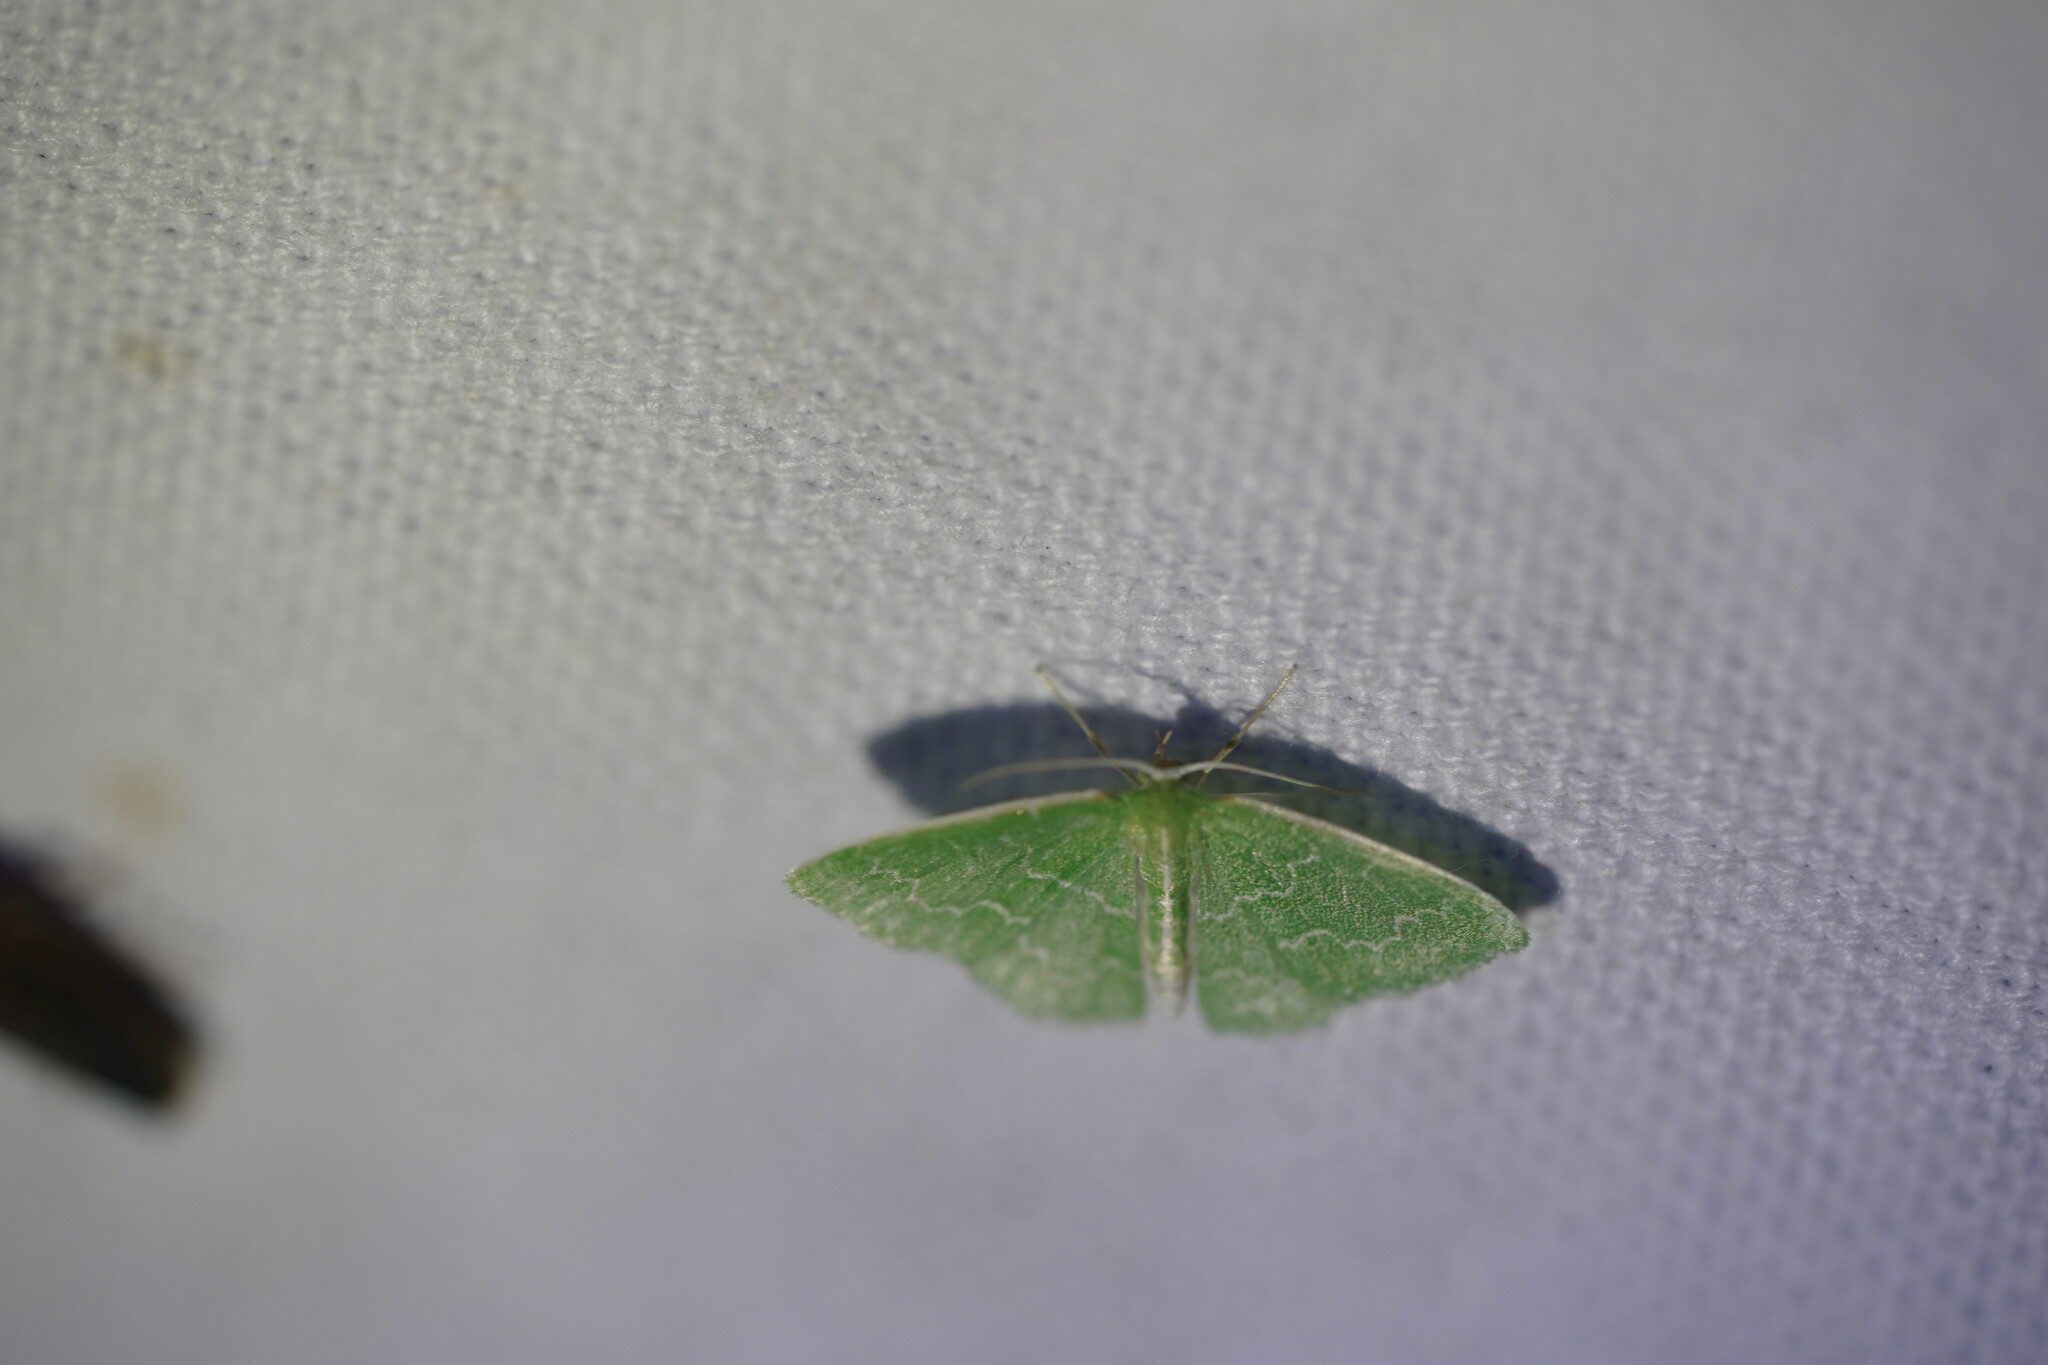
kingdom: Animalia
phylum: Arthropoda
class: Insecta
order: Lepidoptera
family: Geometridae
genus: Synchlora
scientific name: Synchlora frondaria
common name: Southern emerald
